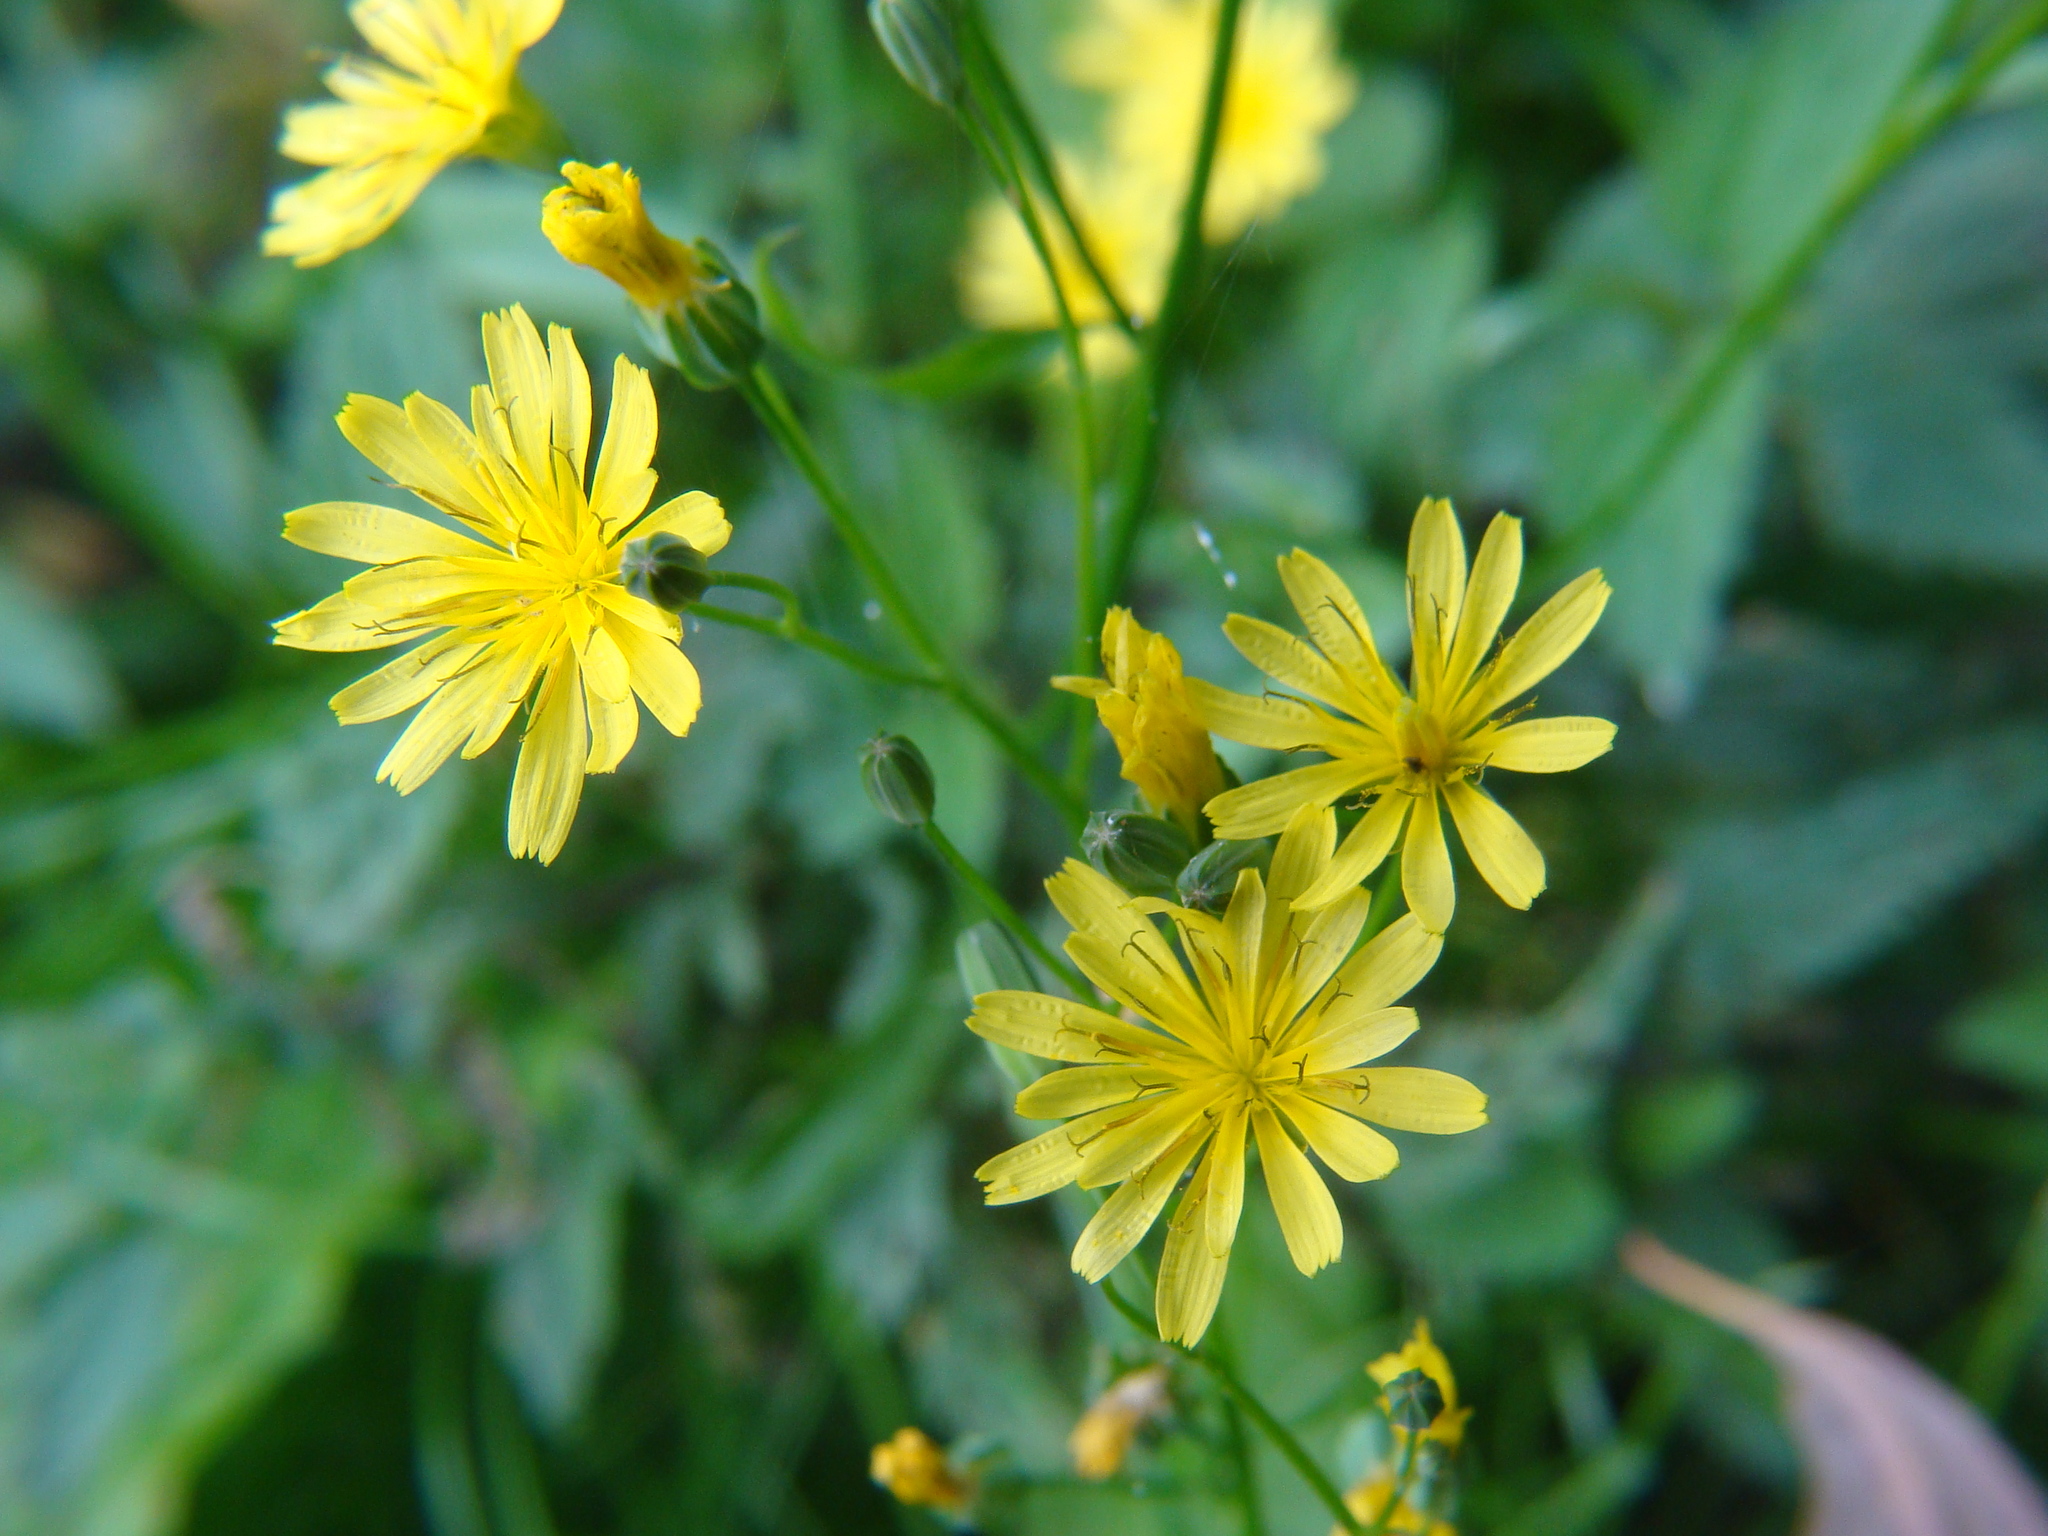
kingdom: Plantae
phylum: Tracheophyta
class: Magnoliopsida
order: Asterales
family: Asteraceae
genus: Lapsana
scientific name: Lapsana communis
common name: Nipplewort
